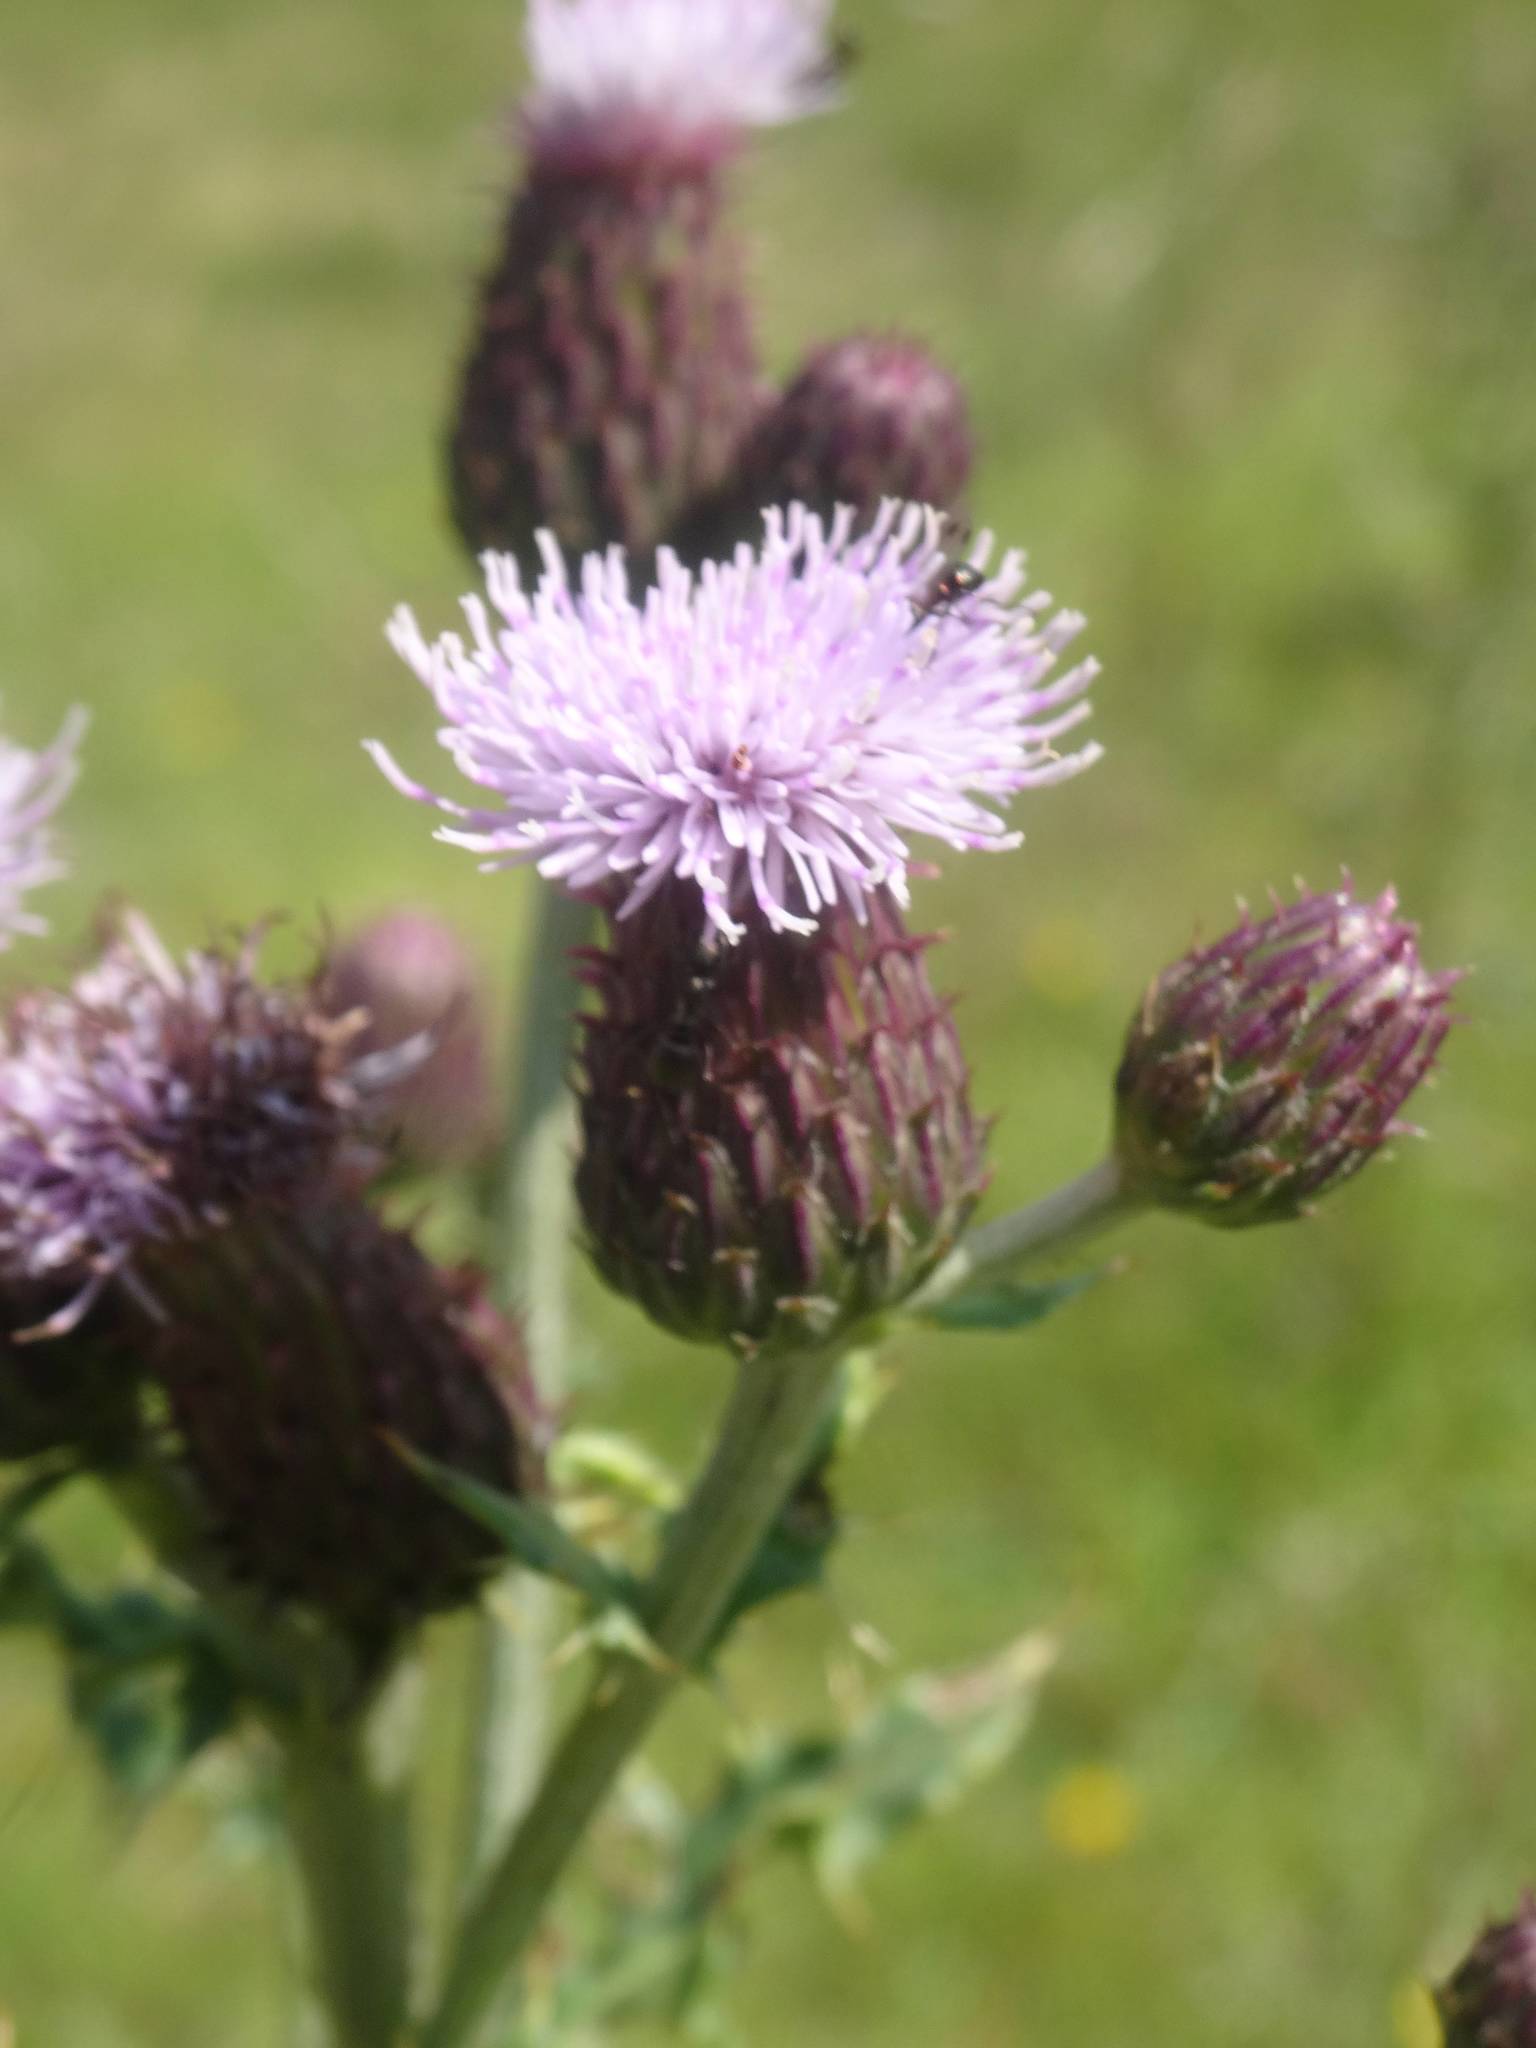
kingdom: Plantae
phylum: Tracheophyta
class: Magnoliopsida
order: Asterales
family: Asteraceae
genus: Cirsium
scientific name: Cirsium arvense
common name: Creeping thistle
